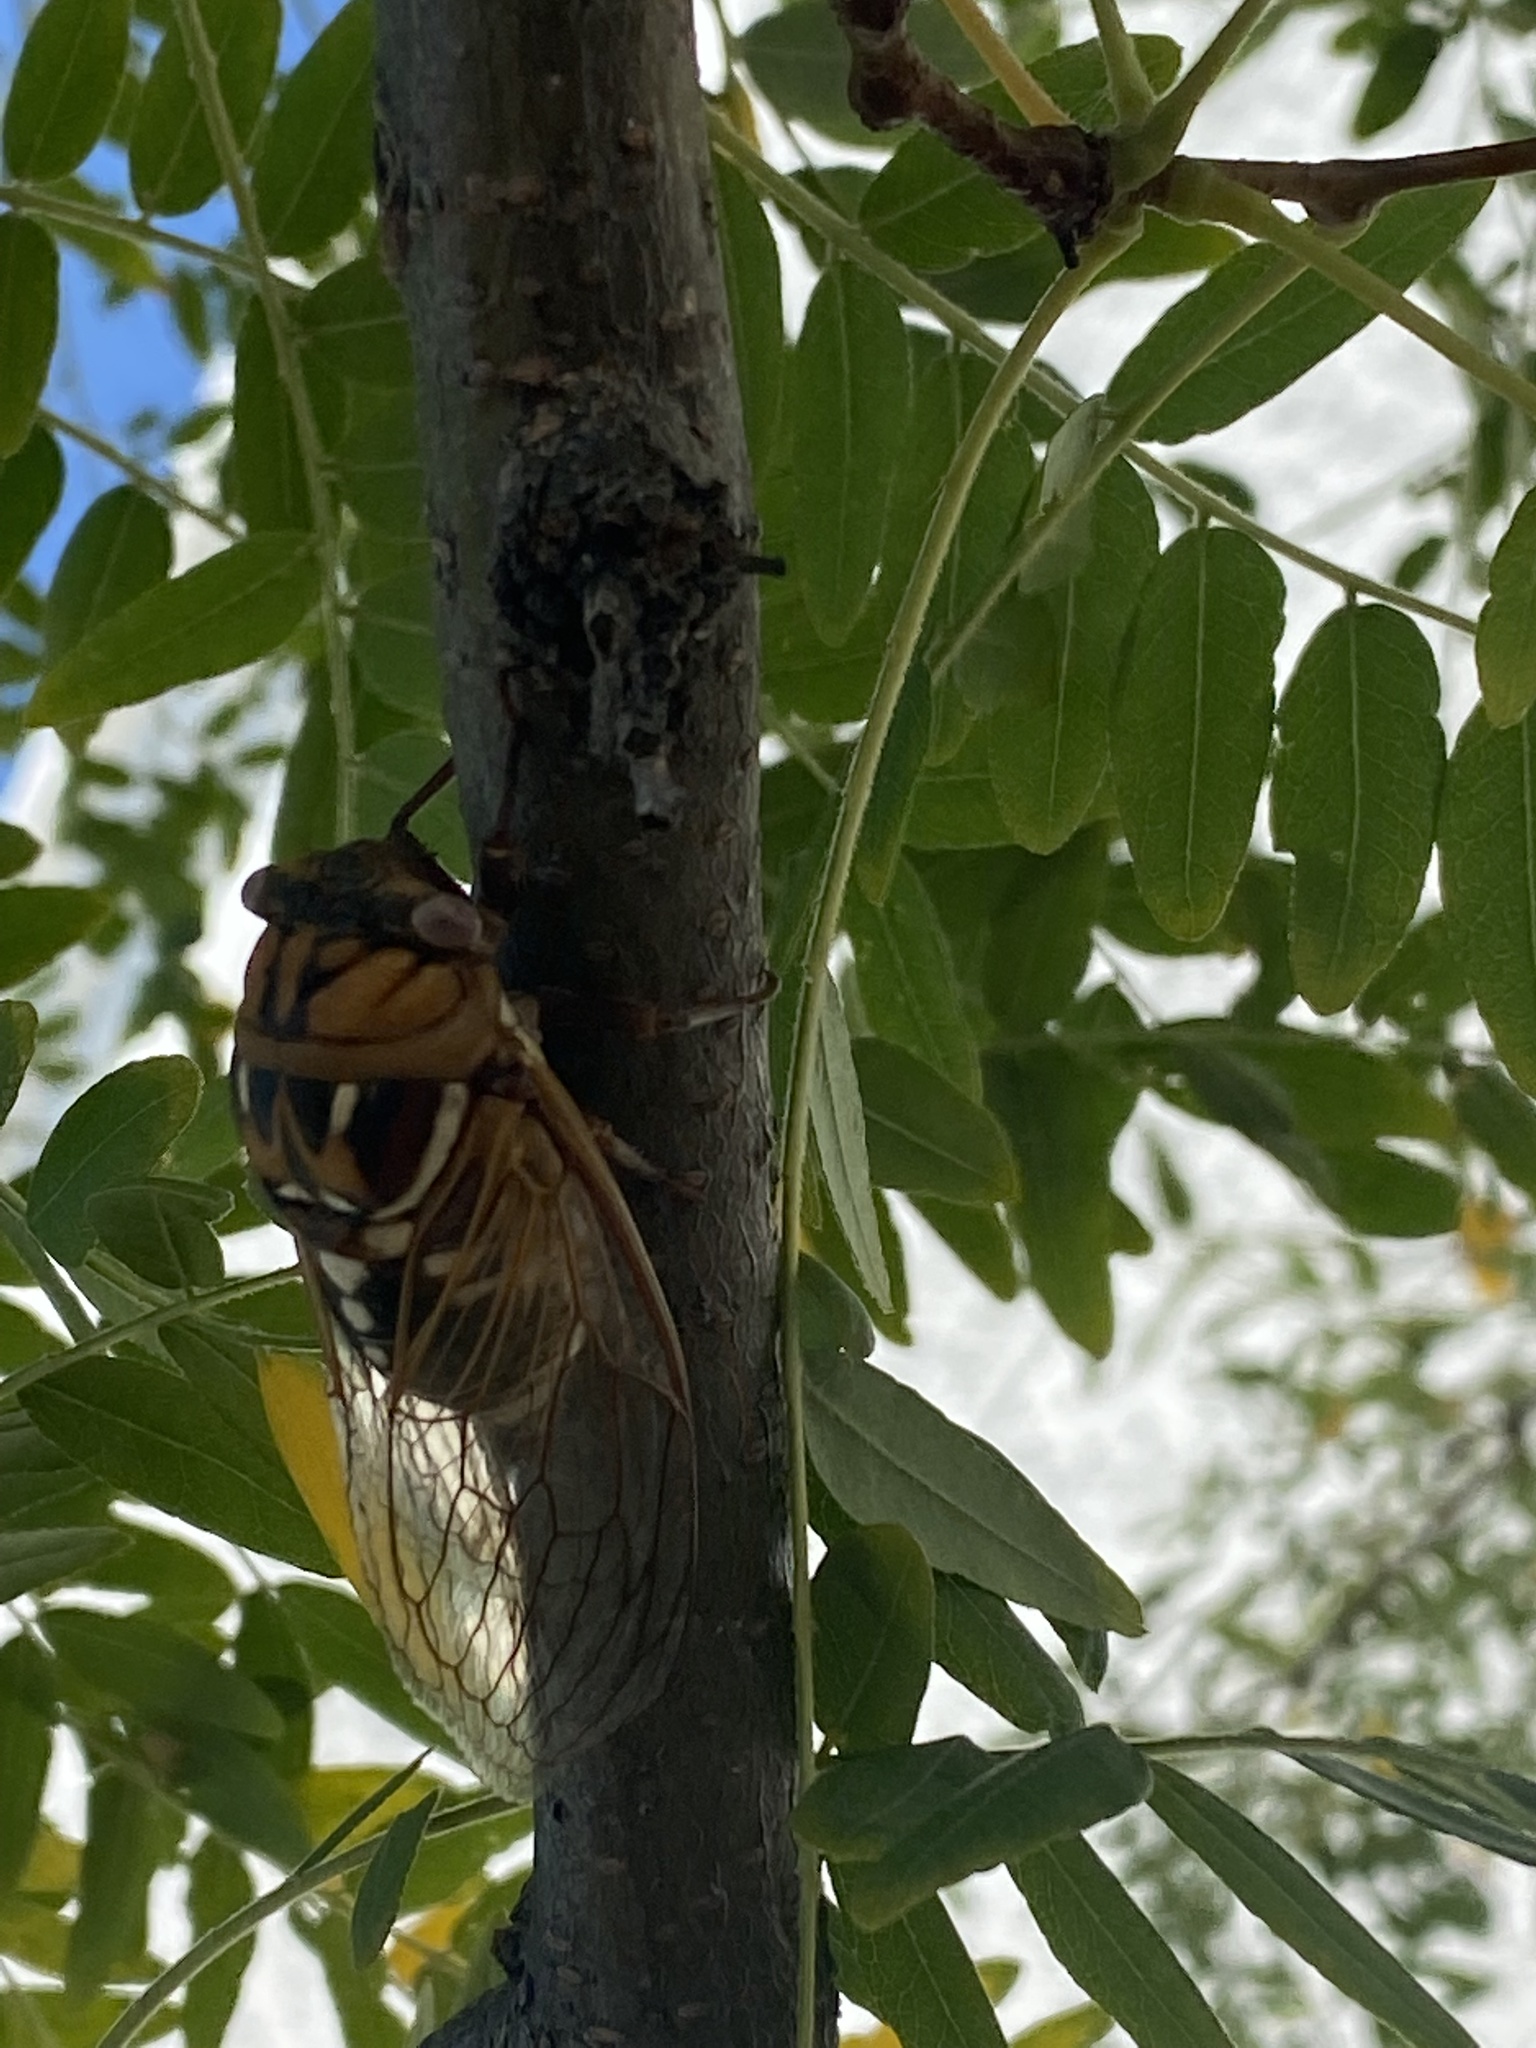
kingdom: Animalia
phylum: Arthropoda
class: Insecta
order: Hemiptera
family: Cicadidae
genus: Megatibicen
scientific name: Megatibicen dorsatus
